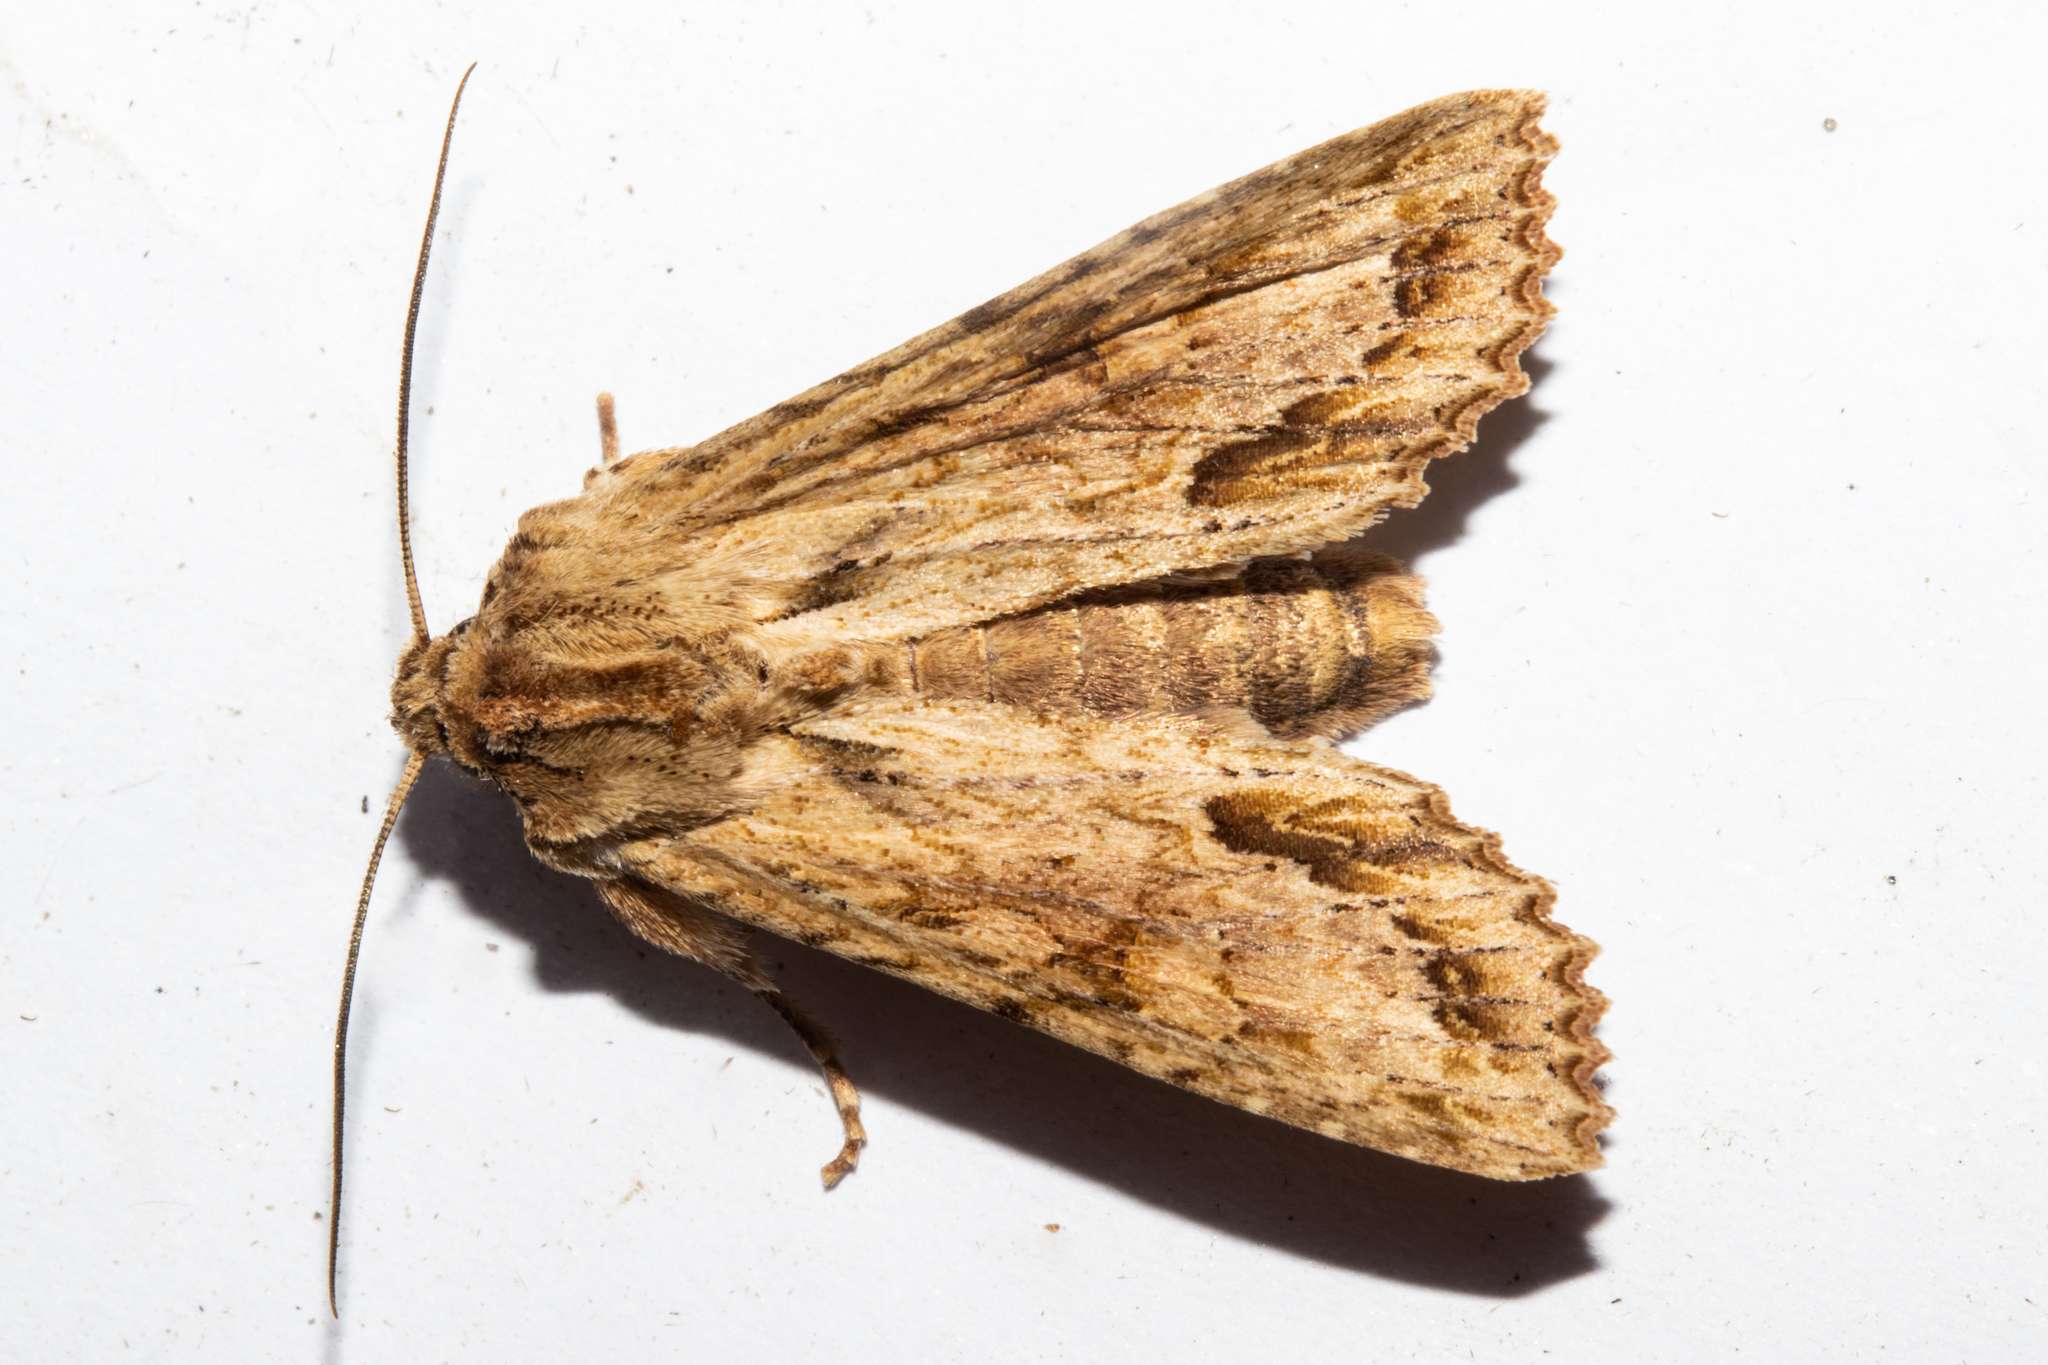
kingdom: Animalia
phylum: Arthropoda
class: Insecta
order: Lepidoptera
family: Noctuidae
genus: Ichneutica
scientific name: Ichneutica mollis
